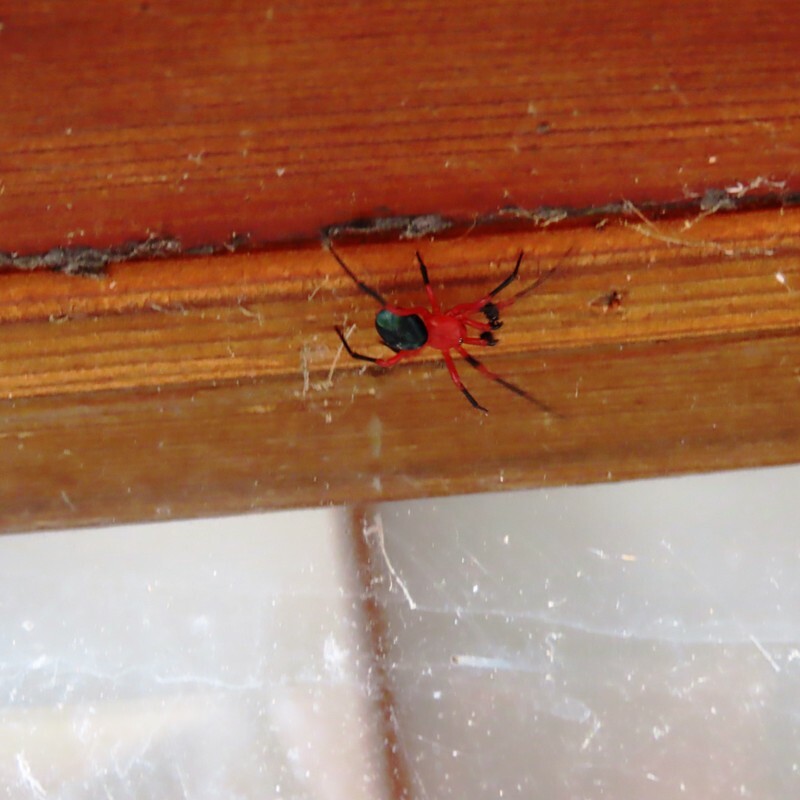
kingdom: Animalia
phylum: Arthropoda
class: Arachnida
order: Araneae
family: Nicodamidae
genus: Nicodamus
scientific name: Nicodamus peregrinus
